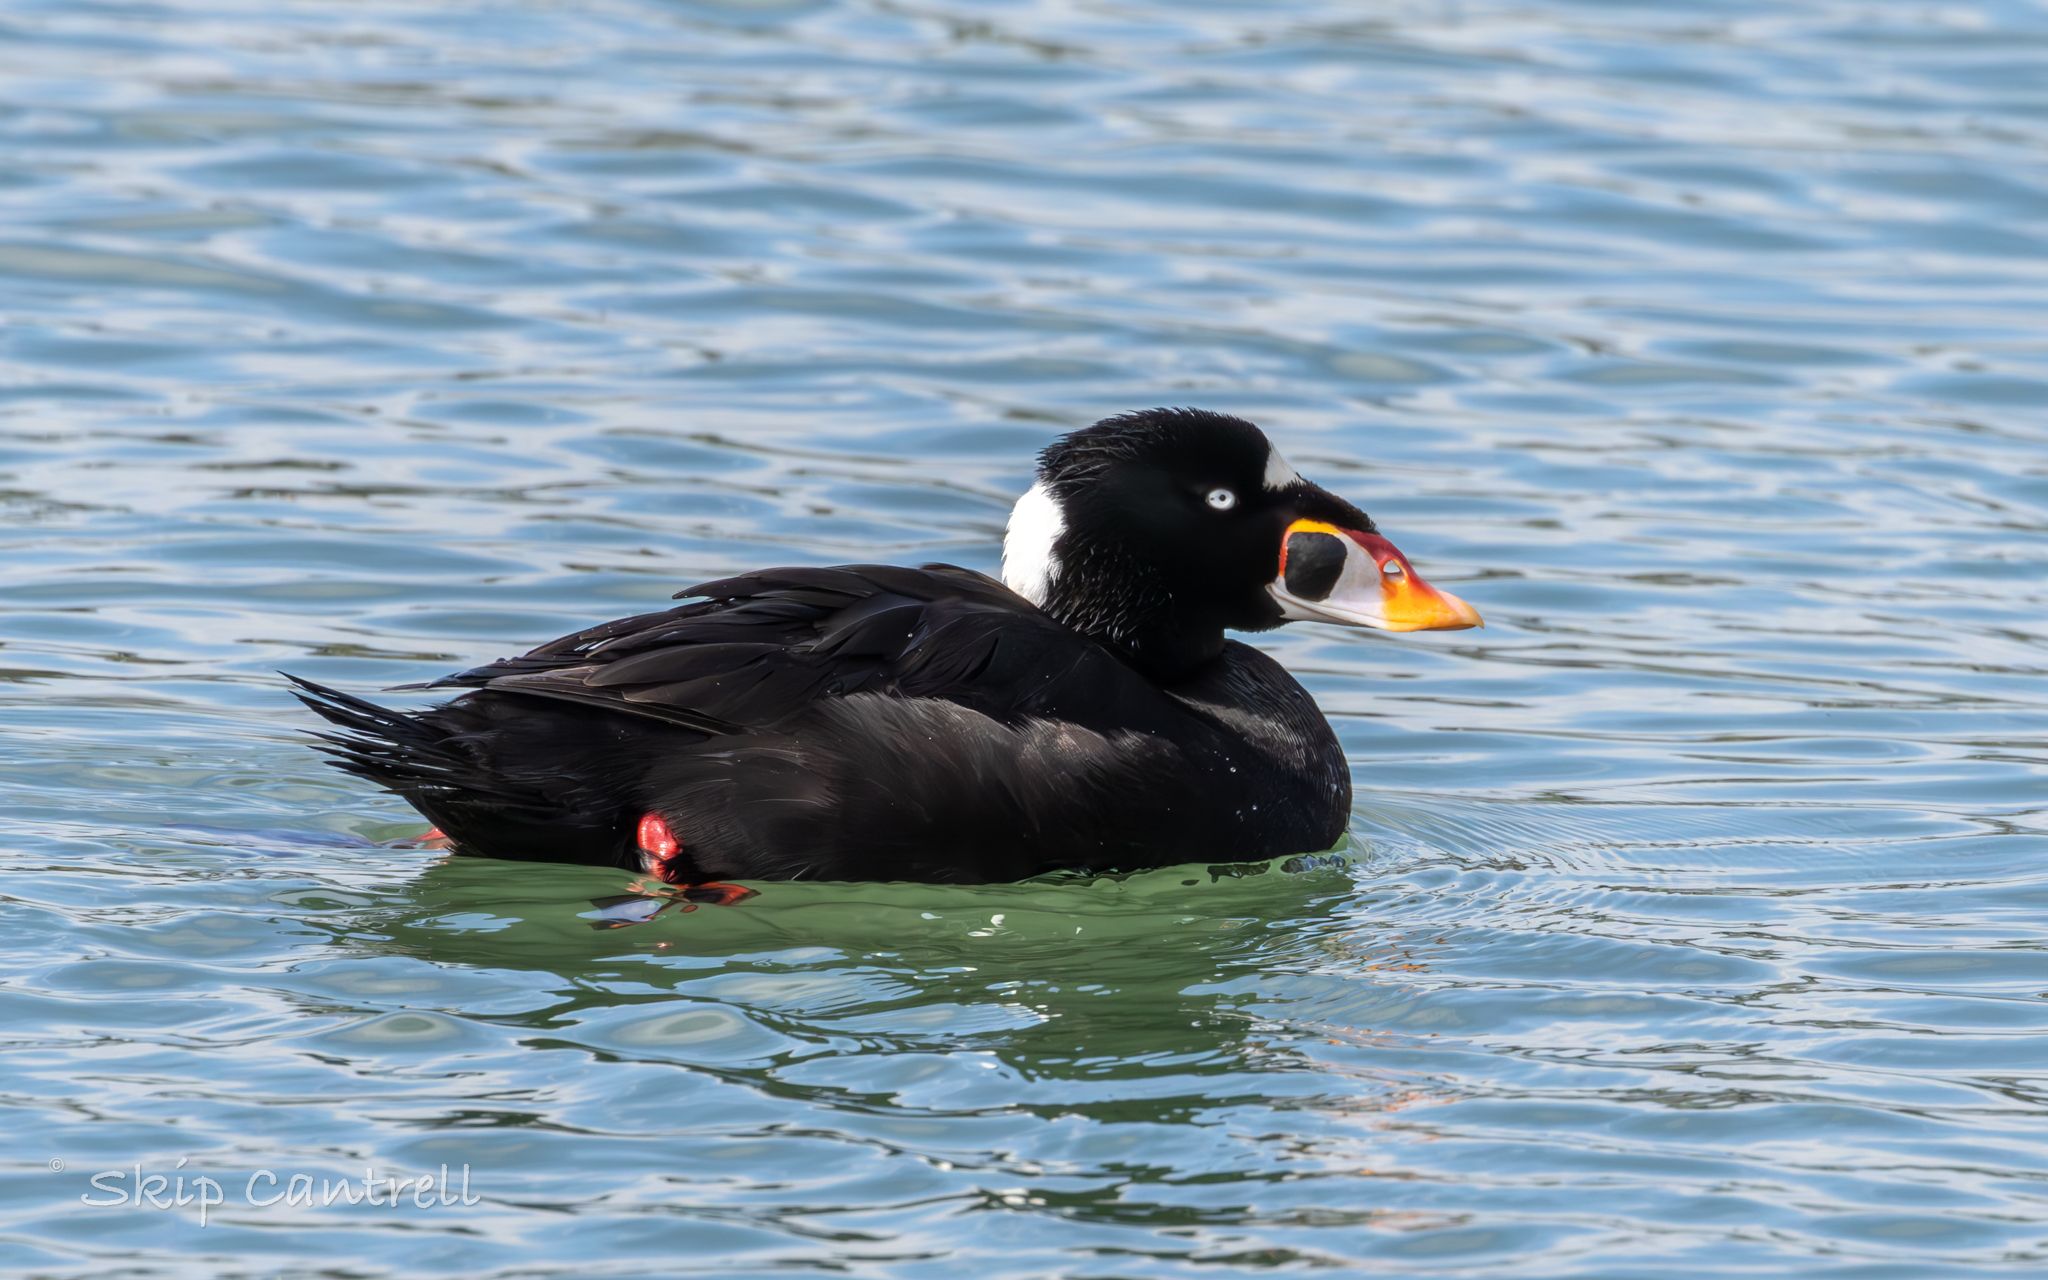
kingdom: Animalia
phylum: Chordata
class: Aves
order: Anseriformes
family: Anatidae
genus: Melanitta
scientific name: Melanitta perspicillata
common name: Surf scoter
